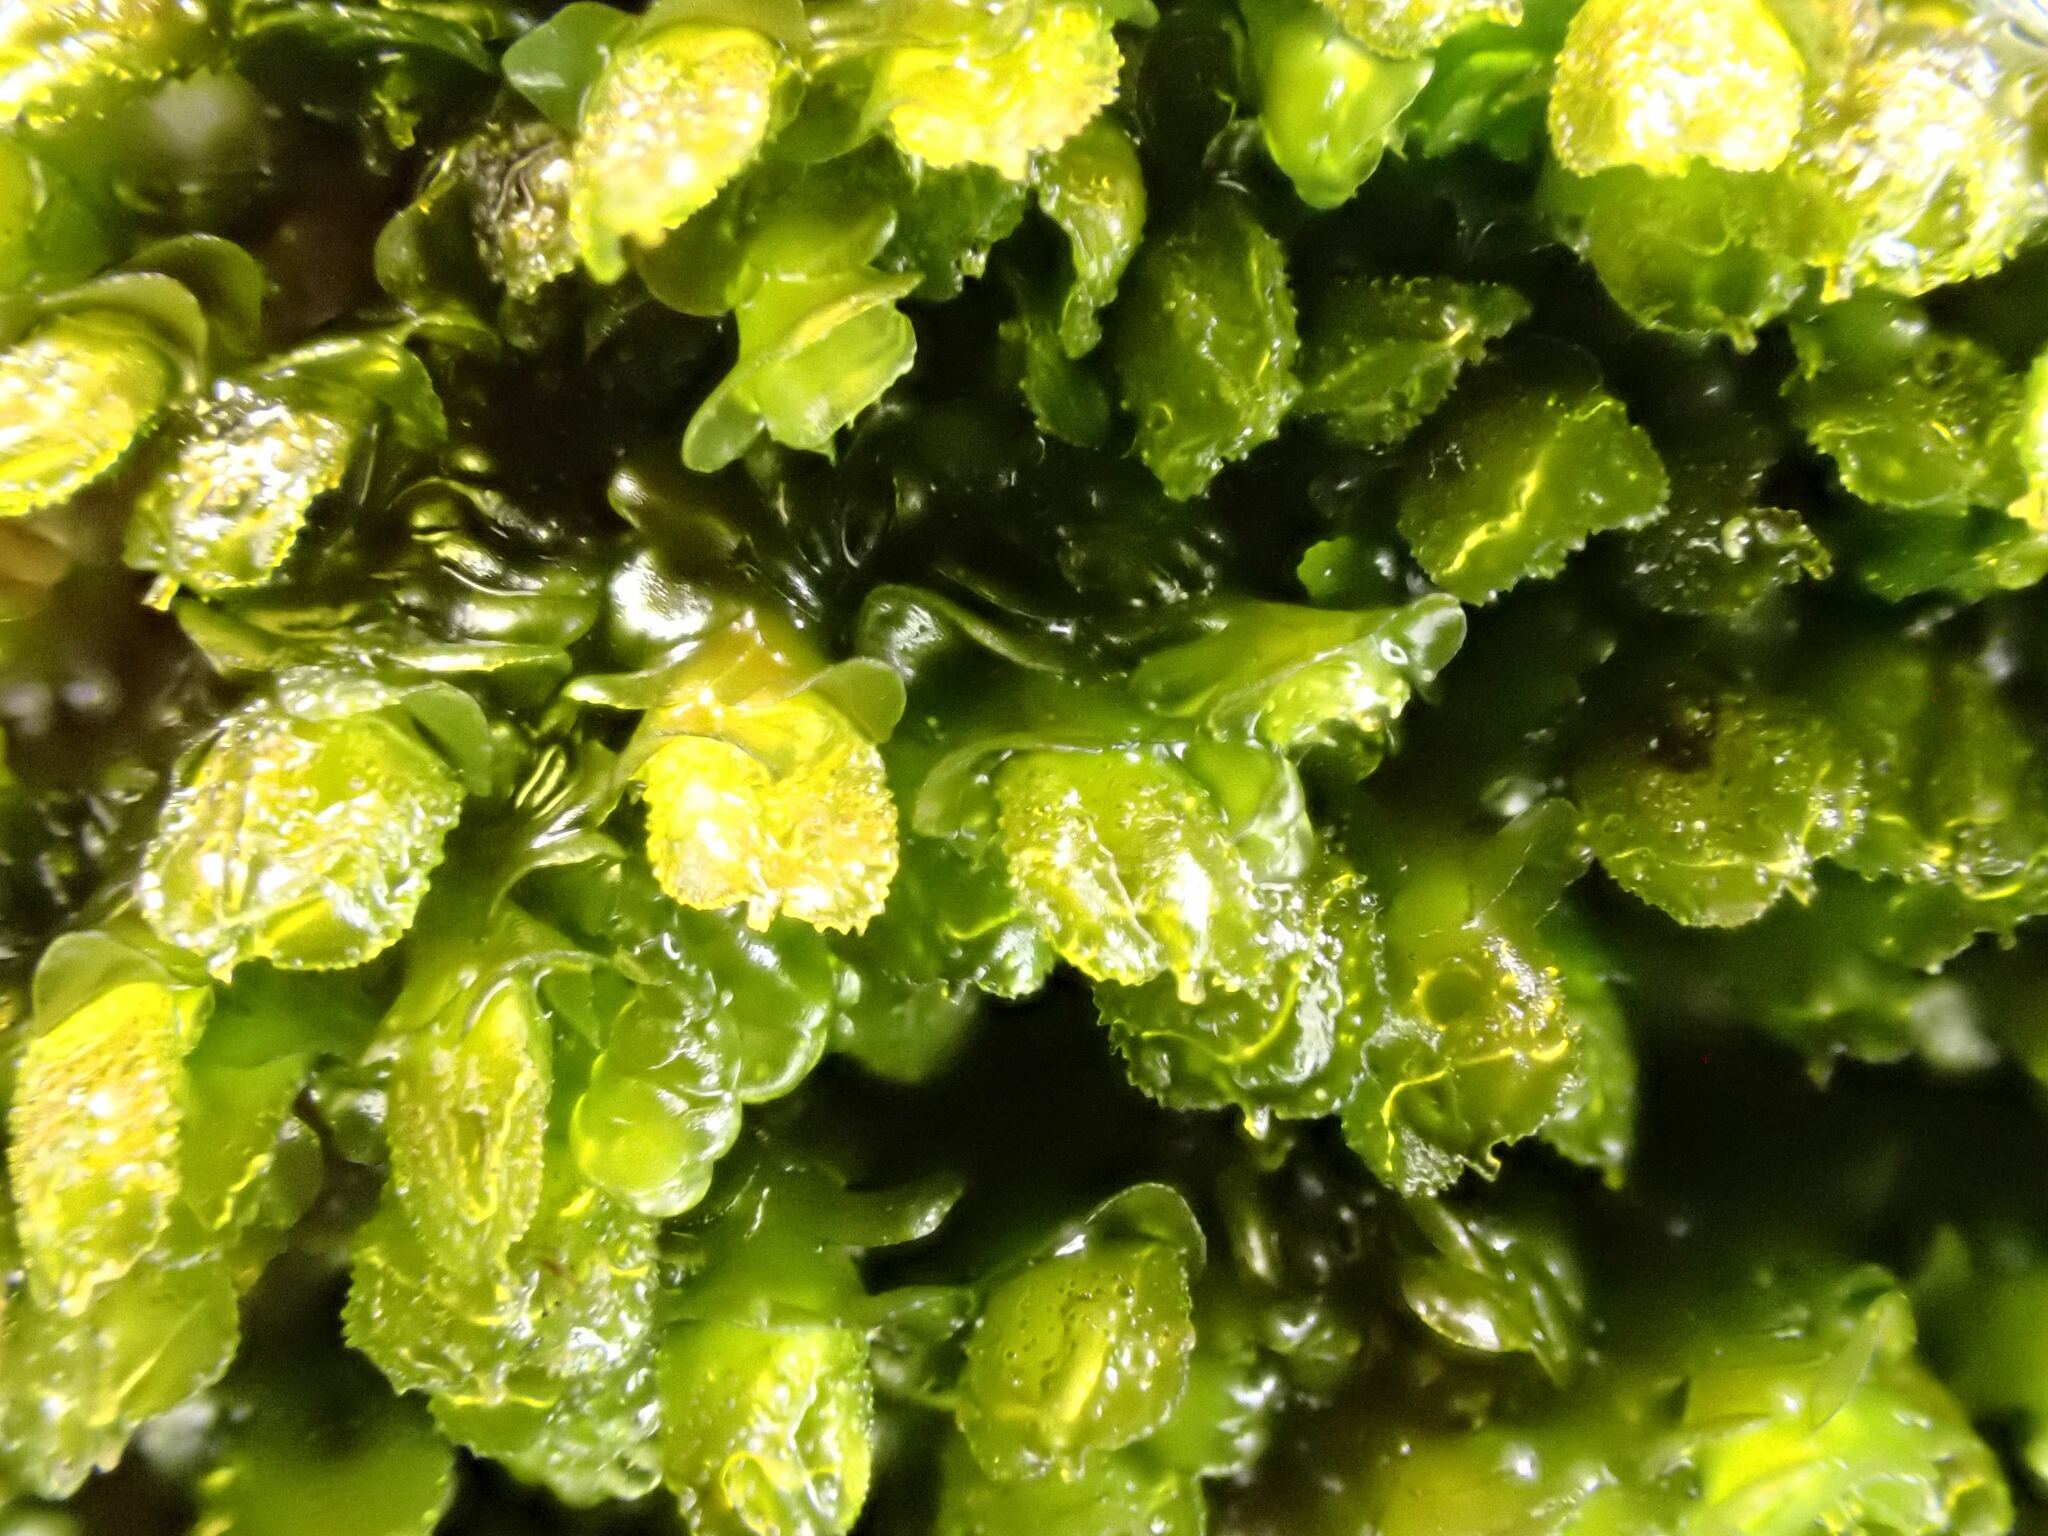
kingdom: Plantae
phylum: Marchantiophyta
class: Jungermanniopsida
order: Porellales
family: Frullaniaceae
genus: Frullania
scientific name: Frullania dilatata
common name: Dilated scalewort
